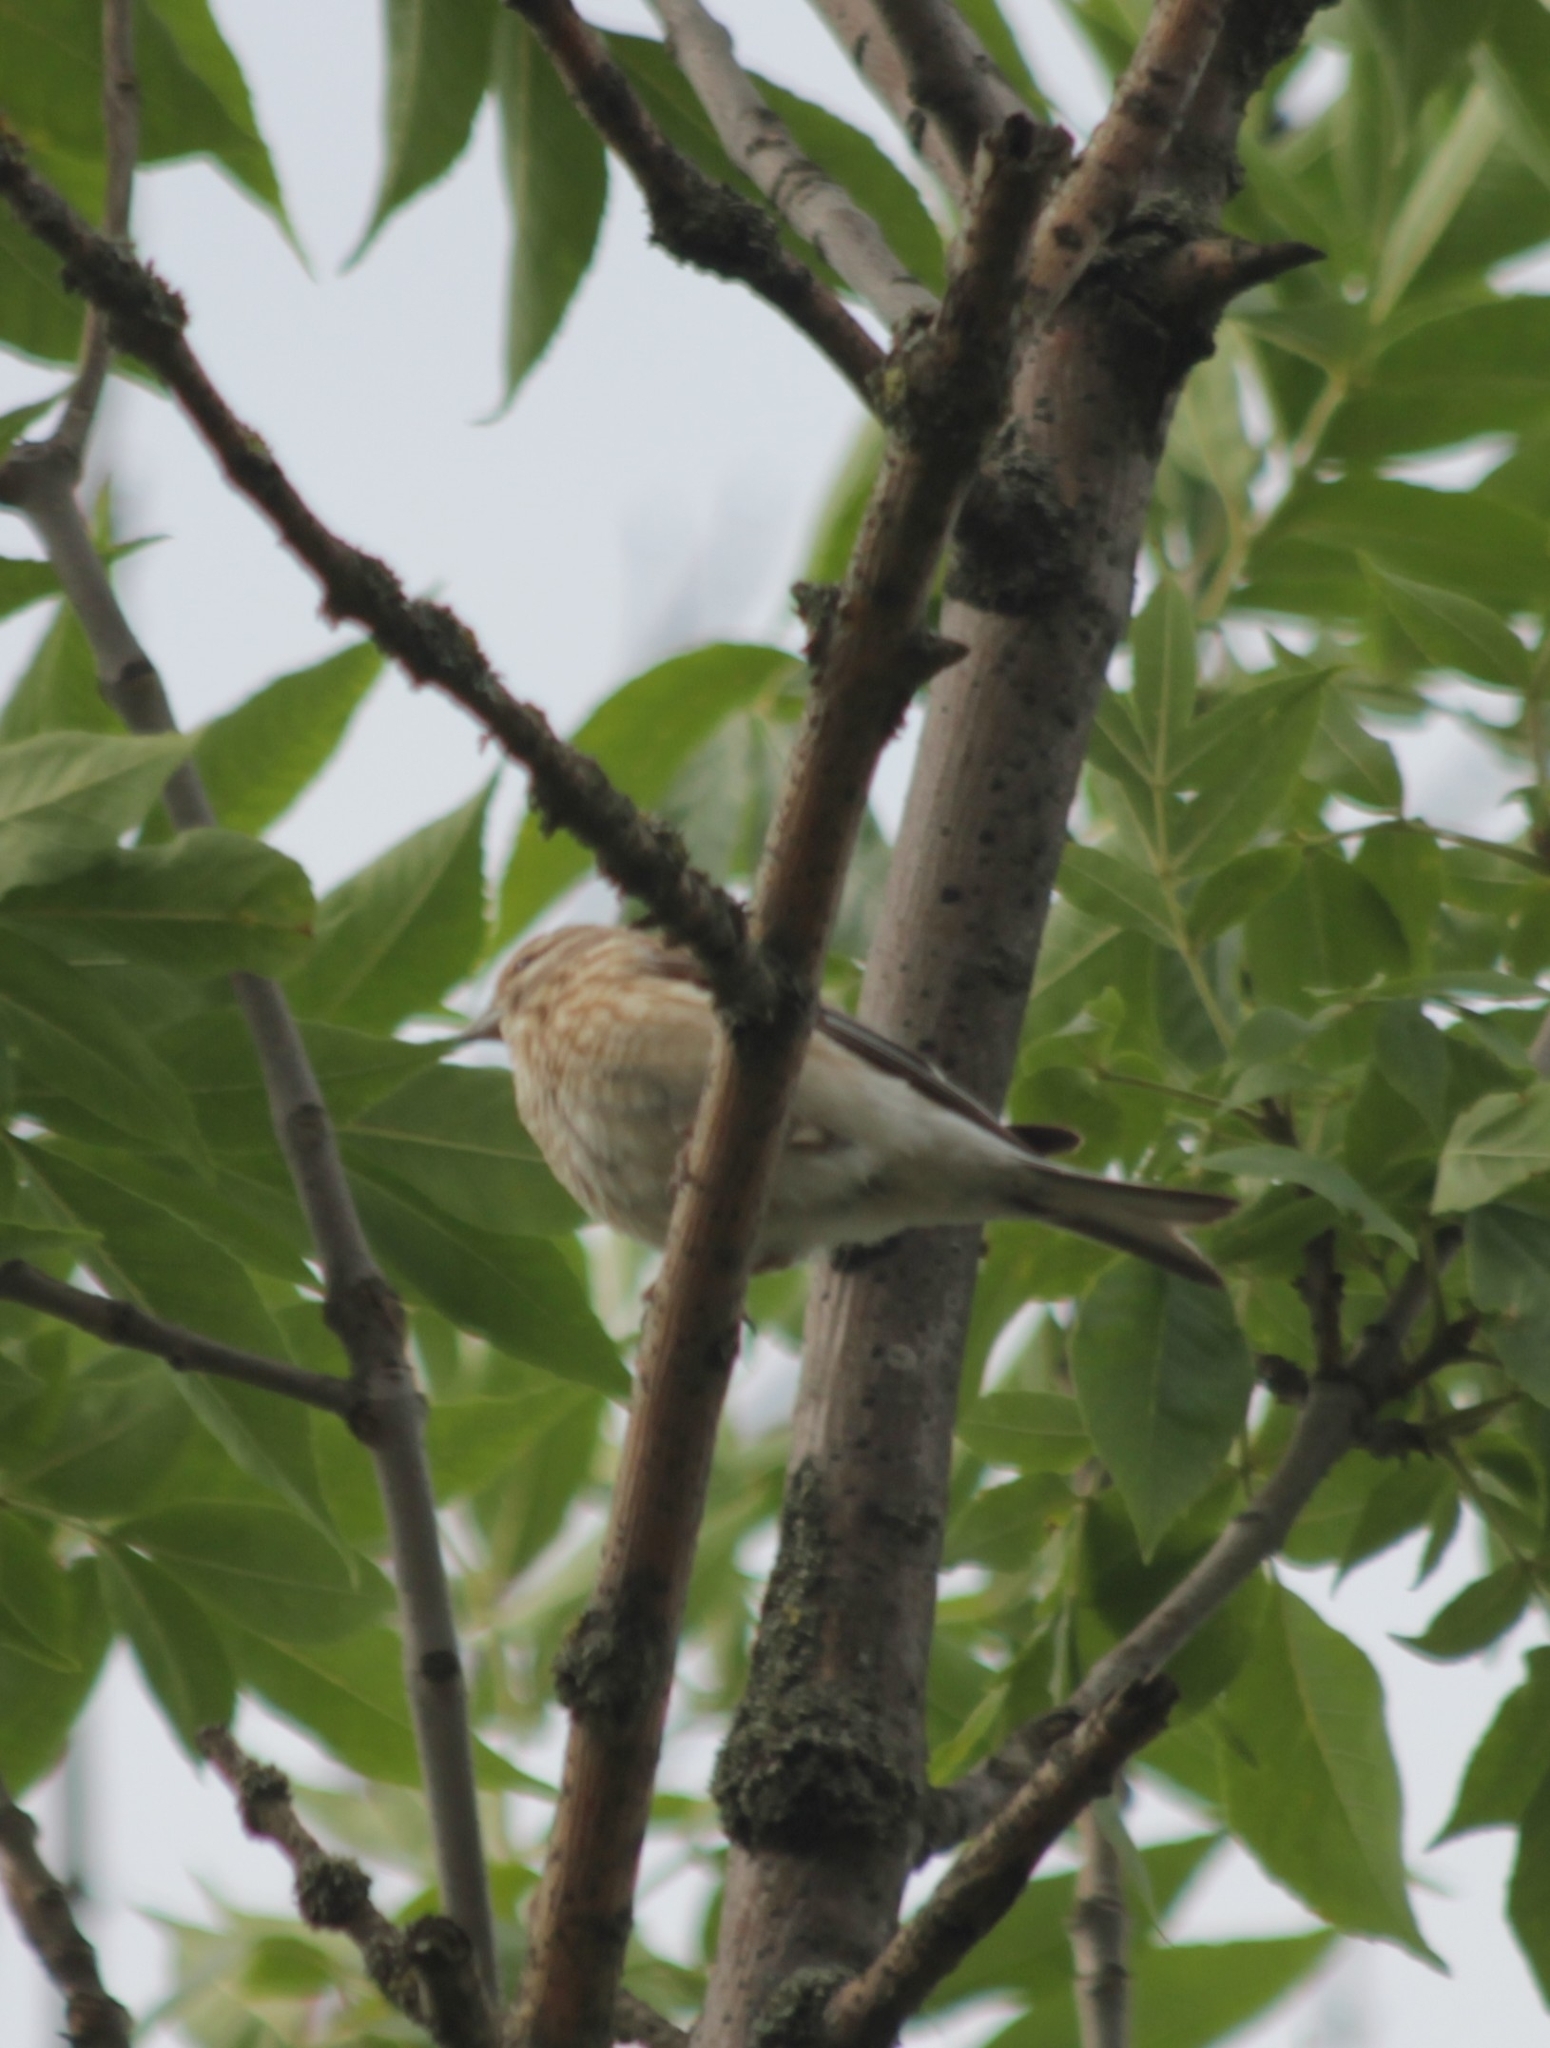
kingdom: Animalia
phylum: Chordata
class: Aves
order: Passeriformes
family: Fringillidae
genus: Linaria
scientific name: Linaria cannabina
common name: Common linnet
